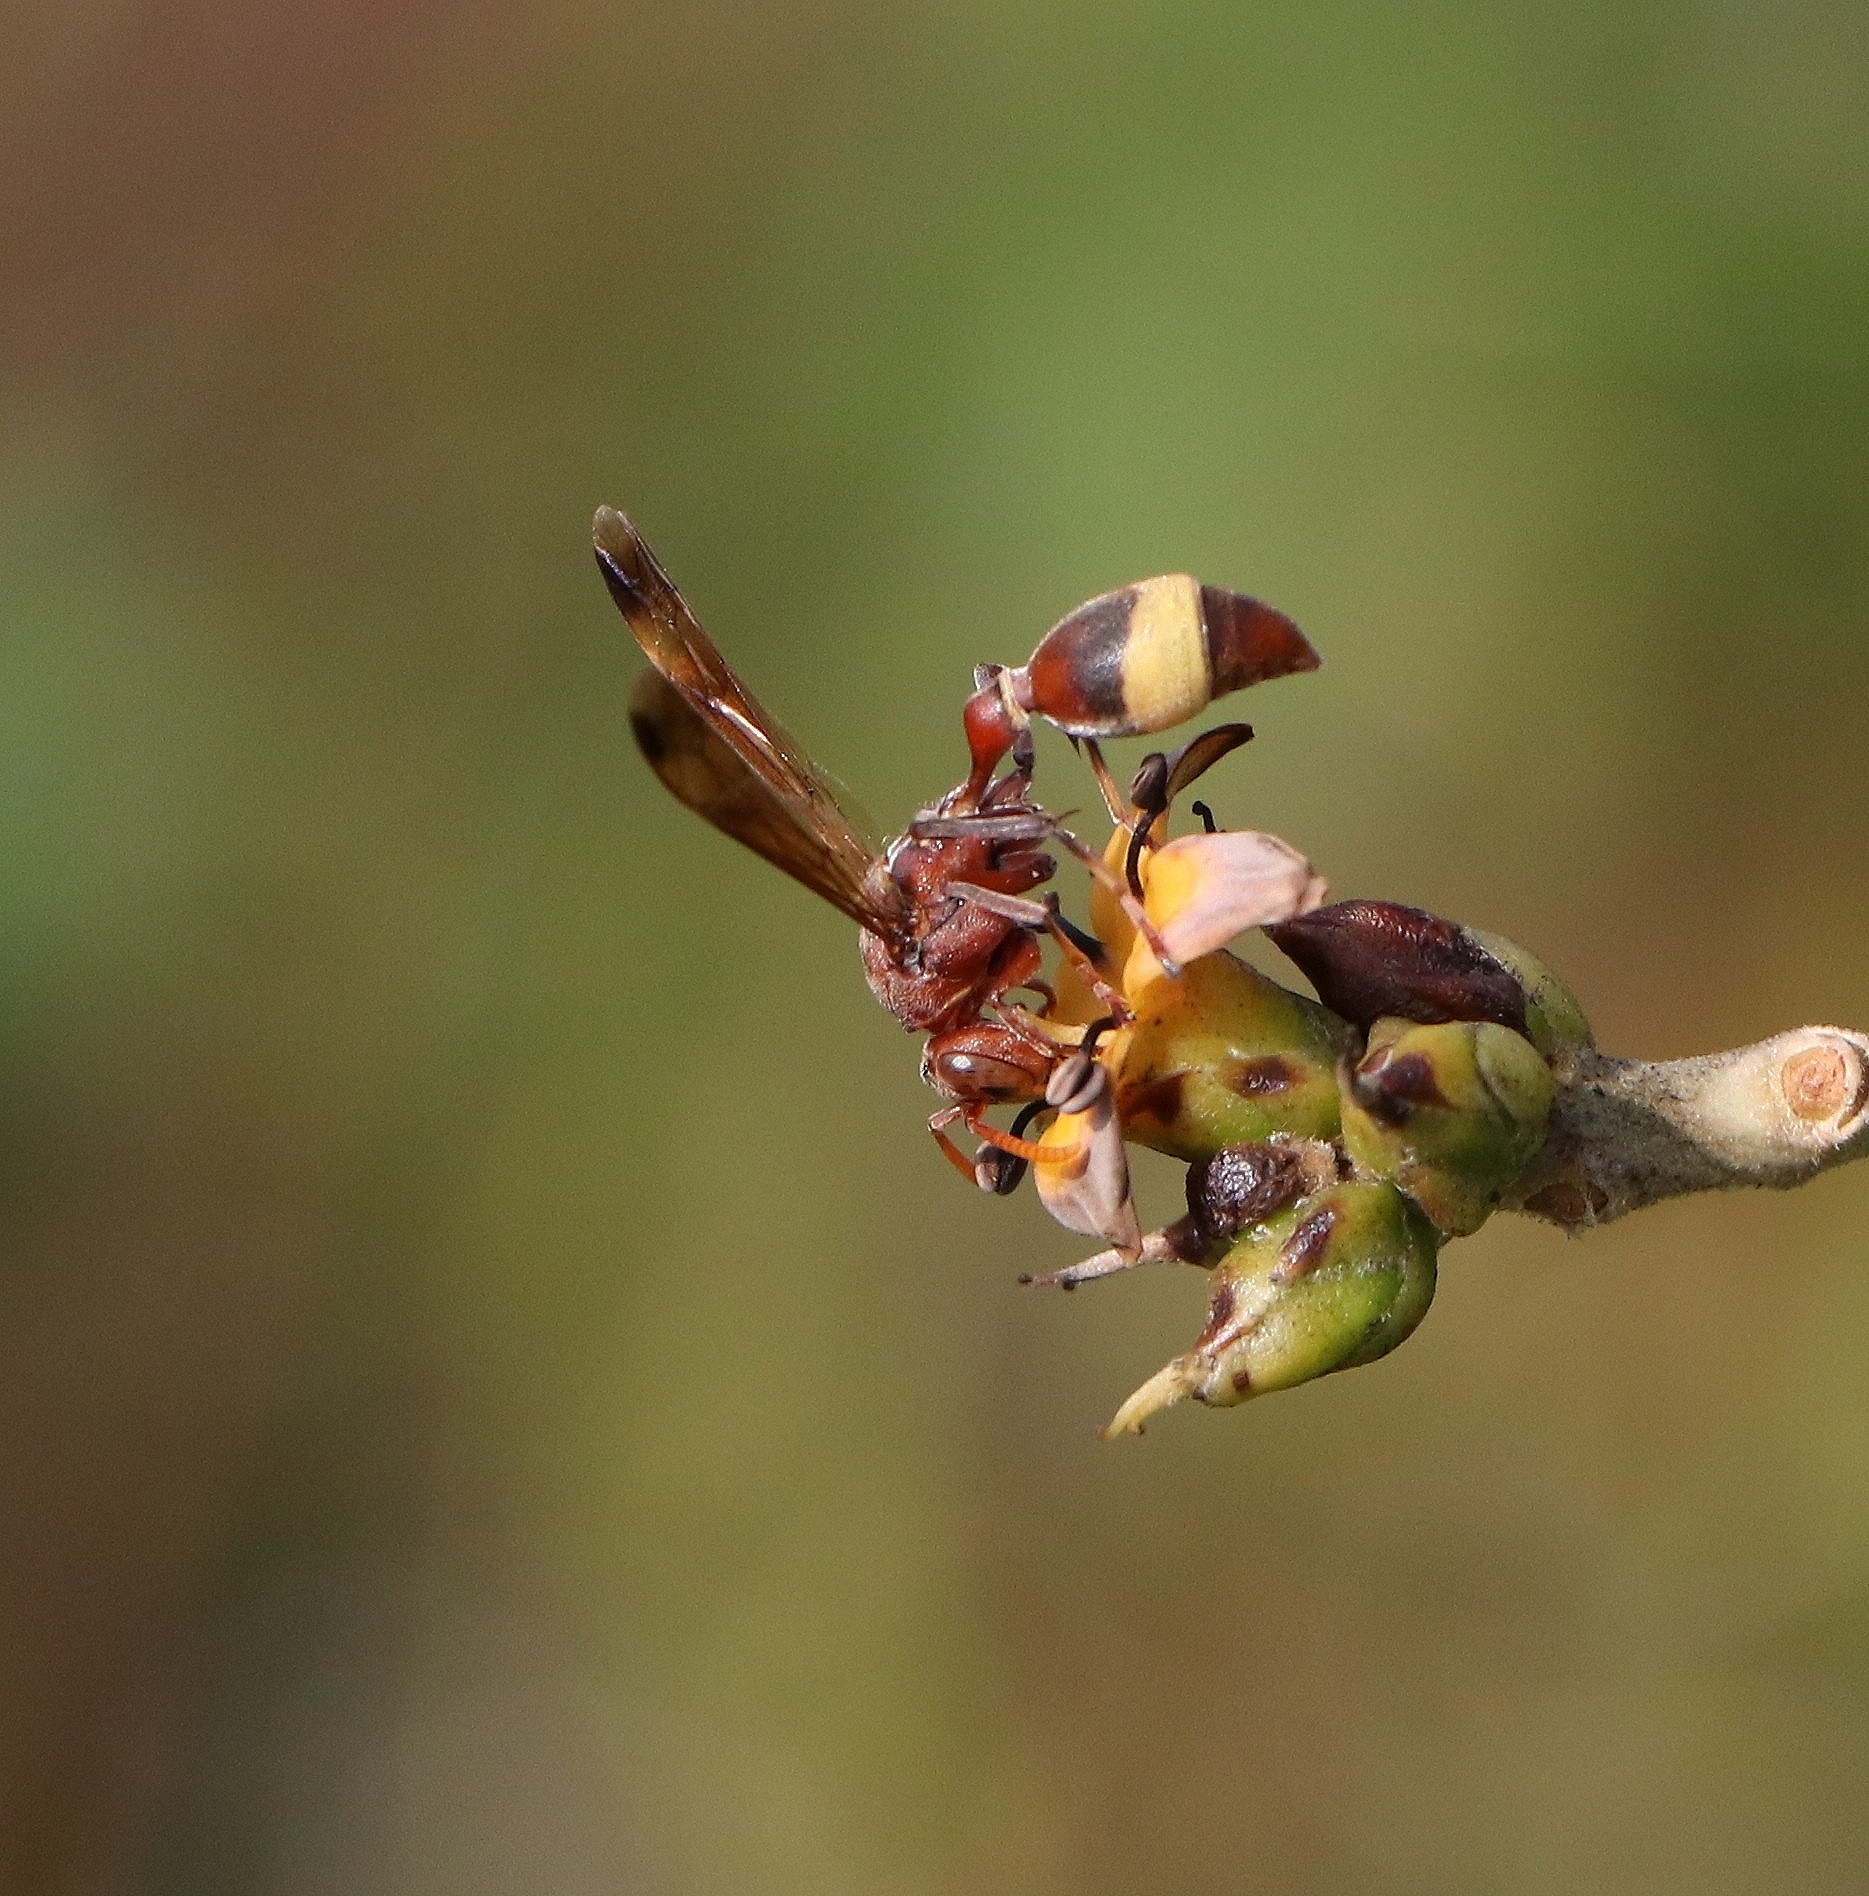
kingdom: Animalia
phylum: Arthropoda
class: Insecta
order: Hymenoptera
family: Vespidae
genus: Ropalidia
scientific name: Ropalidia
